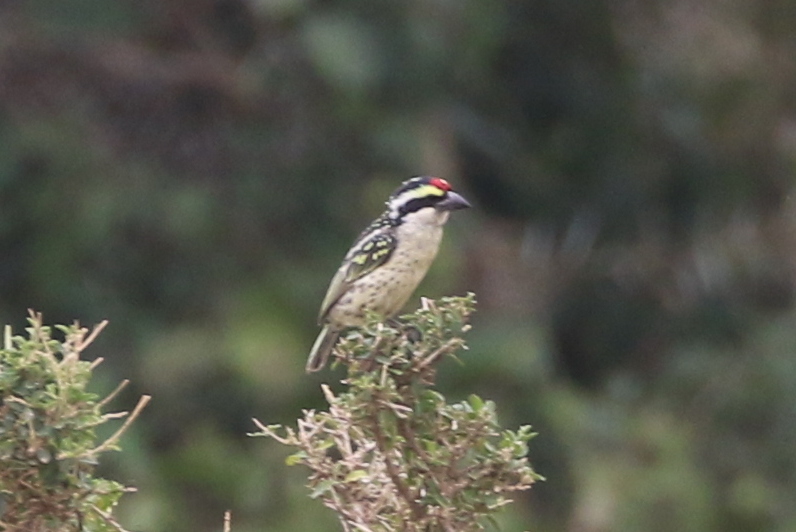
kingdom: Animalia
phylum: Chordata
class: Aves
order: Piciformes
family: Lybiidae
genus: Tricholaema
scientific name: Tricholaema diademata
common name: Red-fronted barbet
